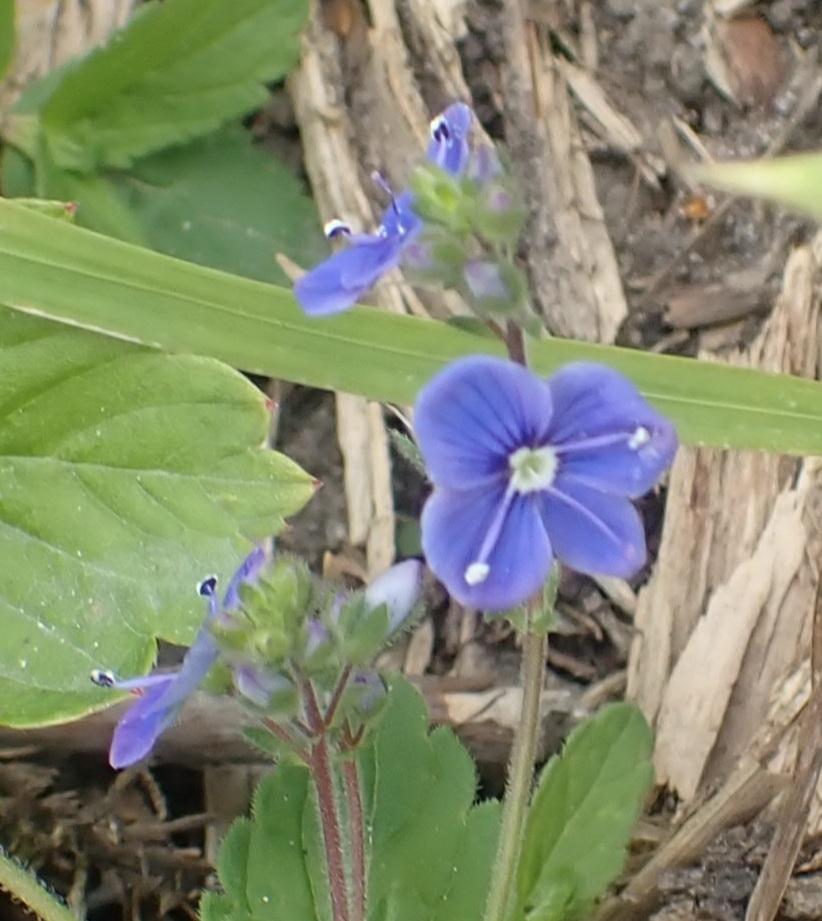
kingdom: Plantae
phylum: Tracheophyta
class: Magnoliopsida
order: Lamiales
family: Plantaginaceae
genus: Veronica
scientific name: Veronica chamaedrys
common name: Germander speedwell
